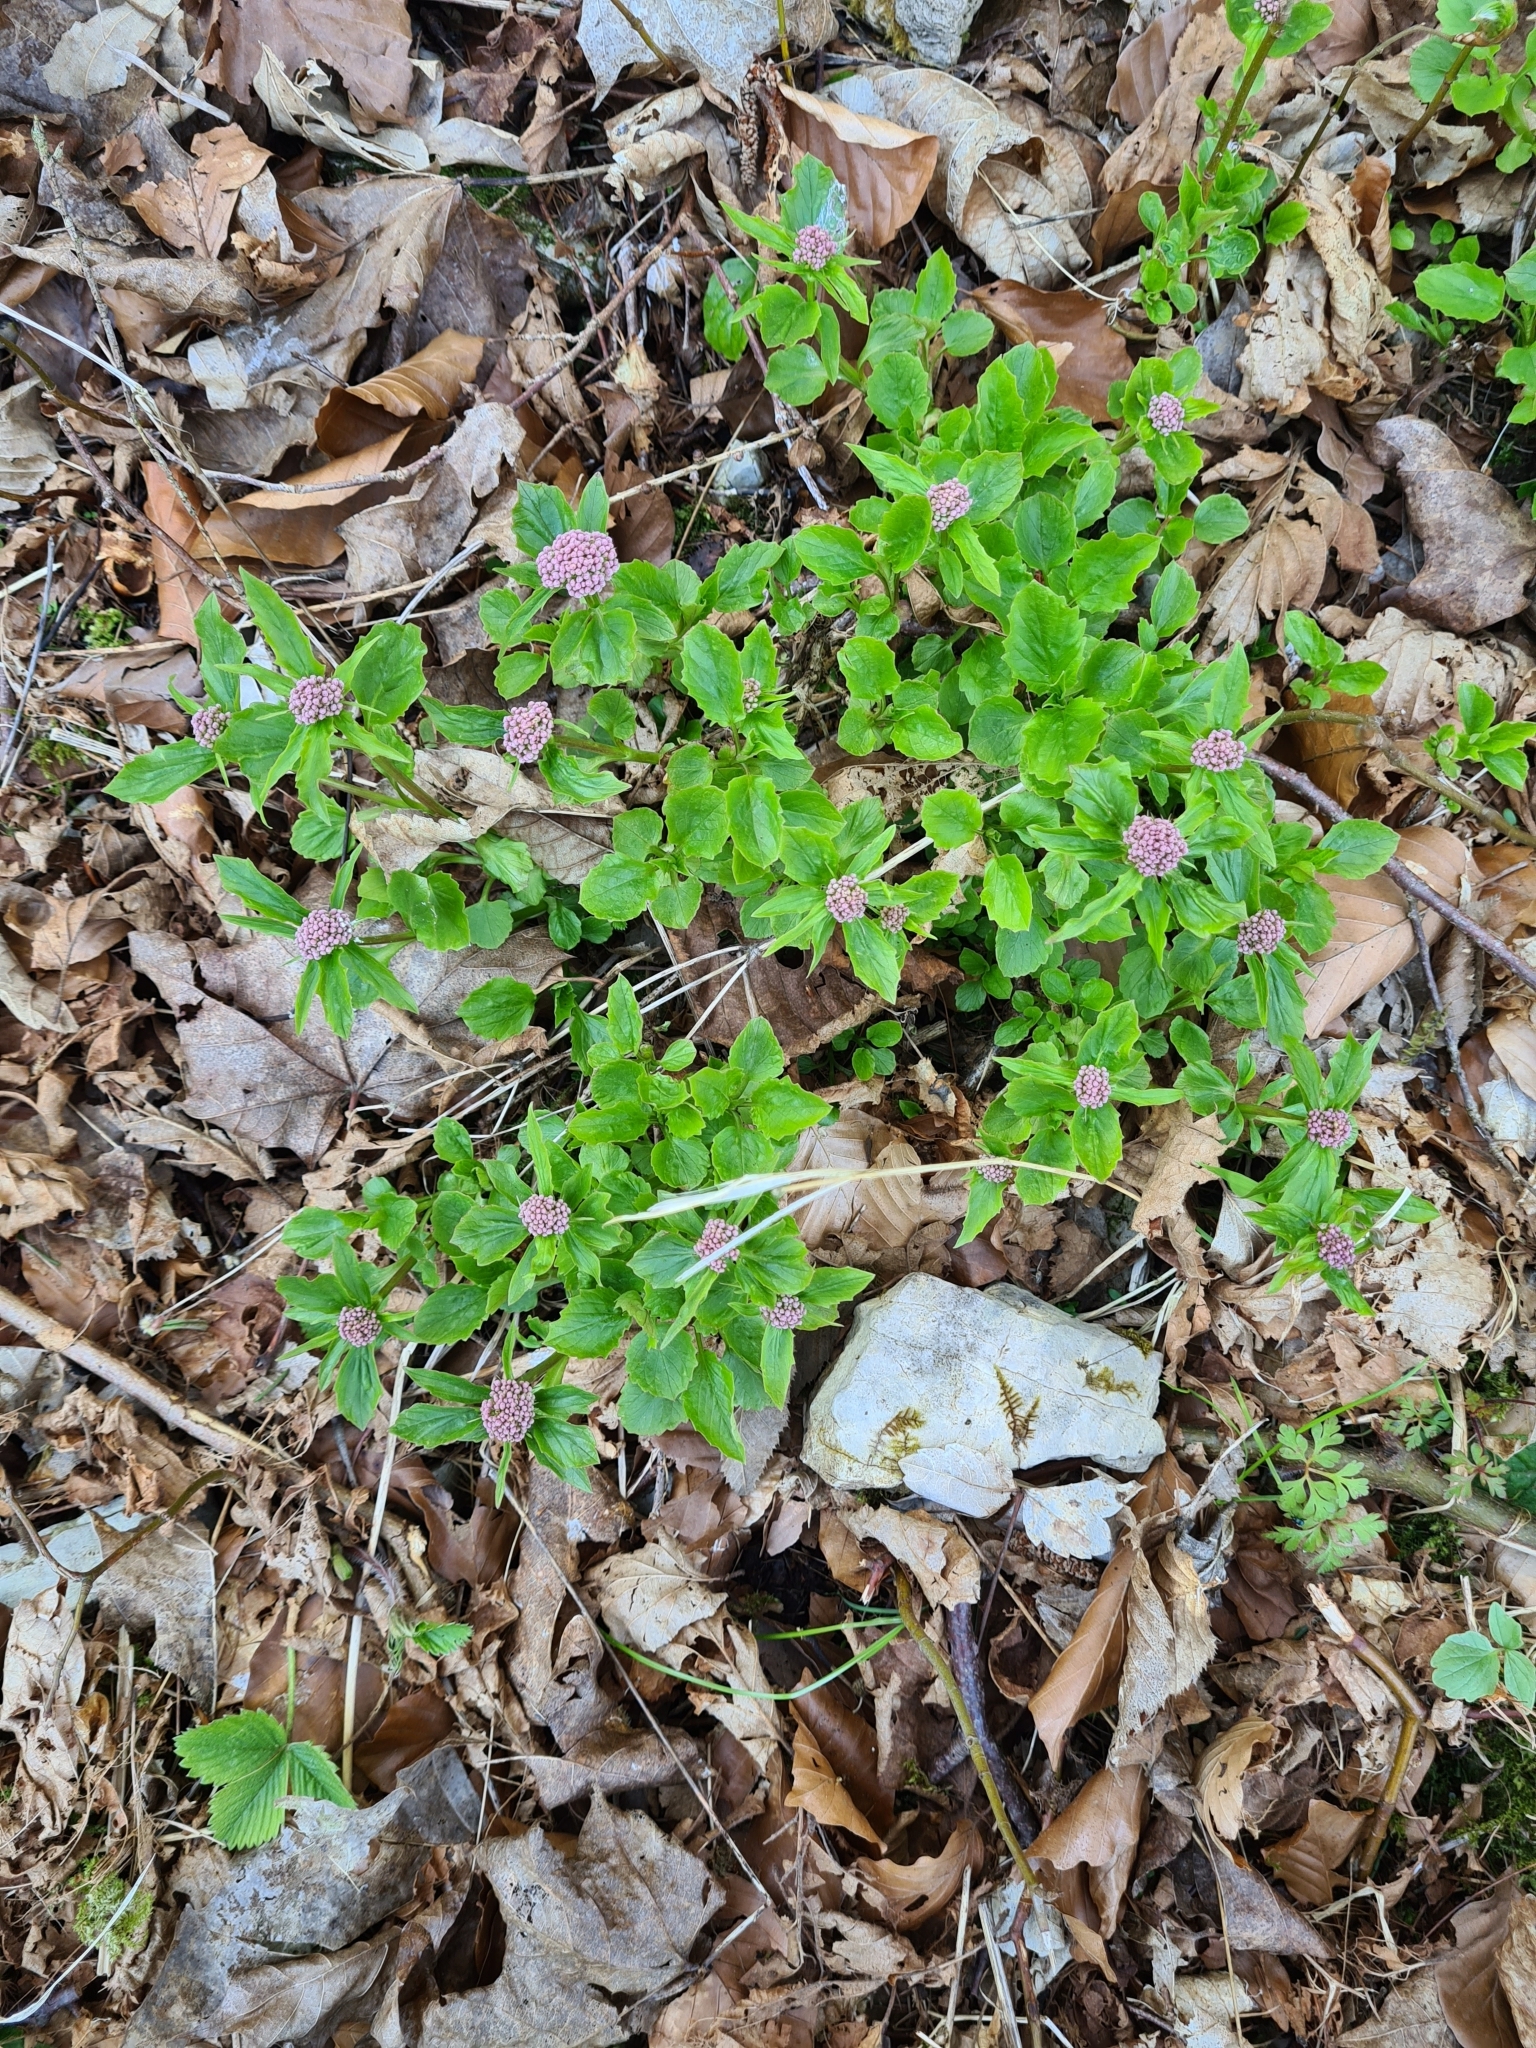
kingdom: Plantae
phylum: Tracheophyta
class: Magnoliopsida
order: Dipsacales
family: Caprifoliaceae
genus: Valeriana
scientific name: Valeriana tripteris
